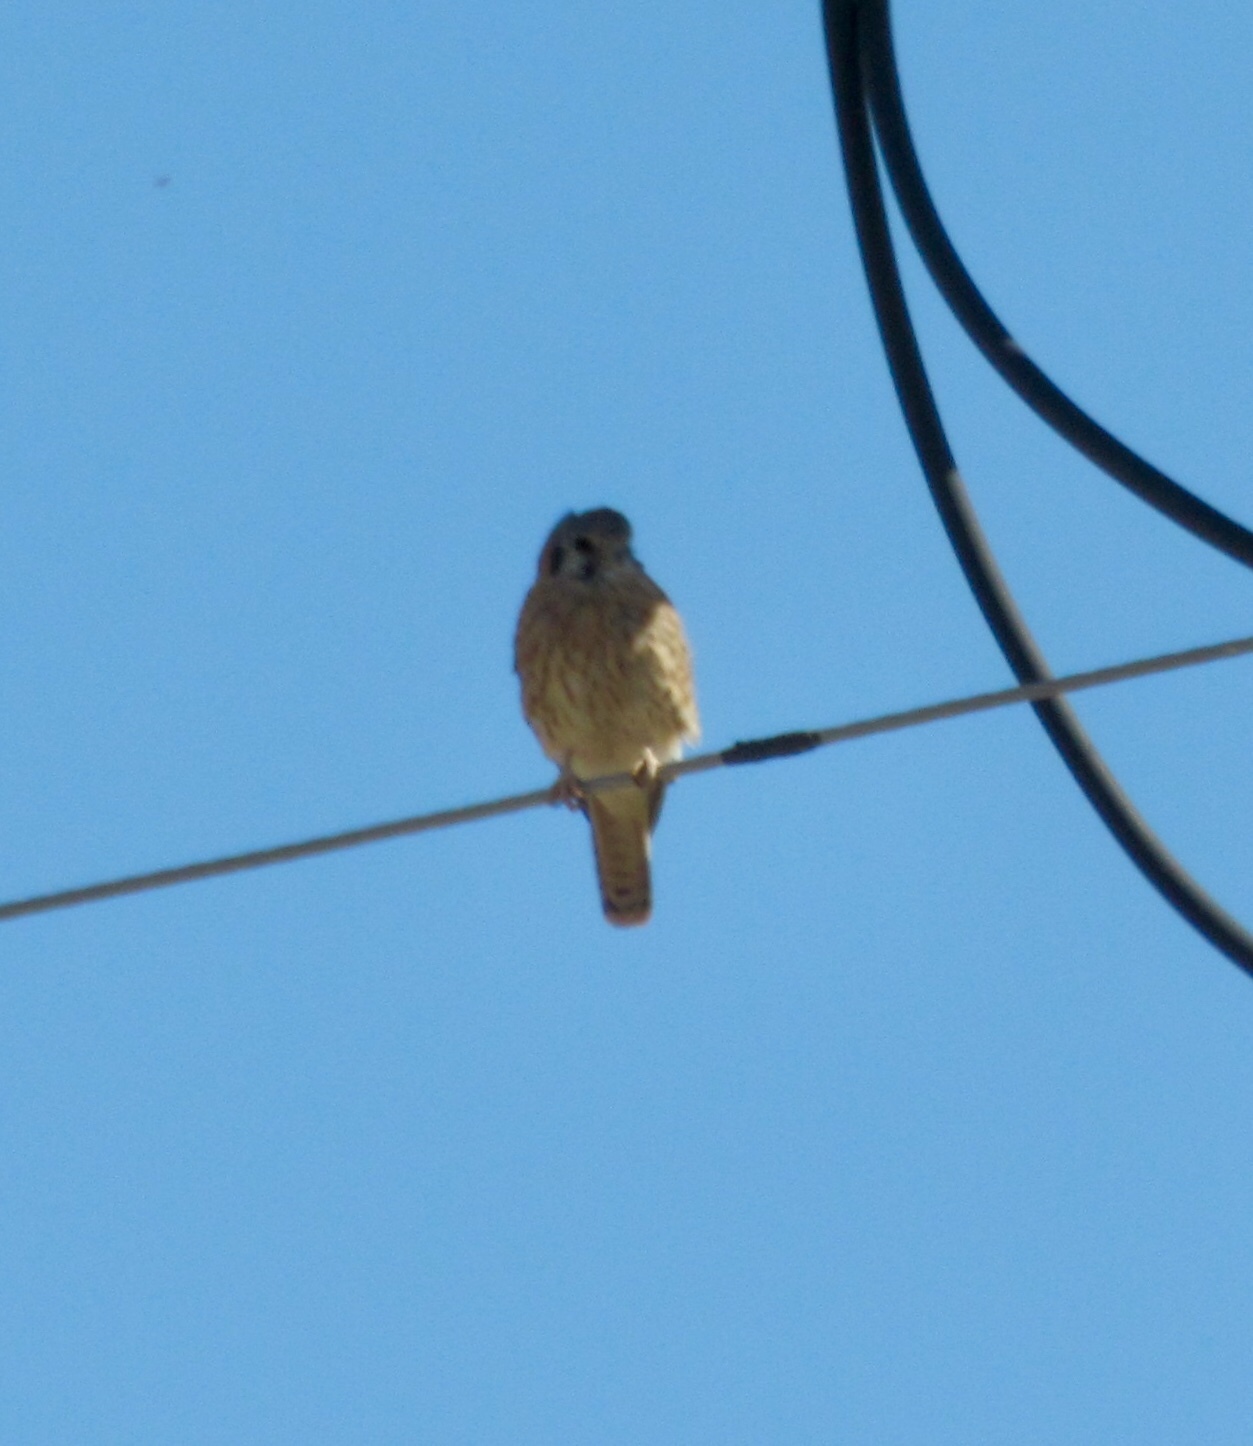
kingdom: Animalia
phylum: Chordata
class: Aves
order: Falconiformes
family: Falconidae
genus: Falco
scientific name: Falco sparverius
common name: American kestrel
